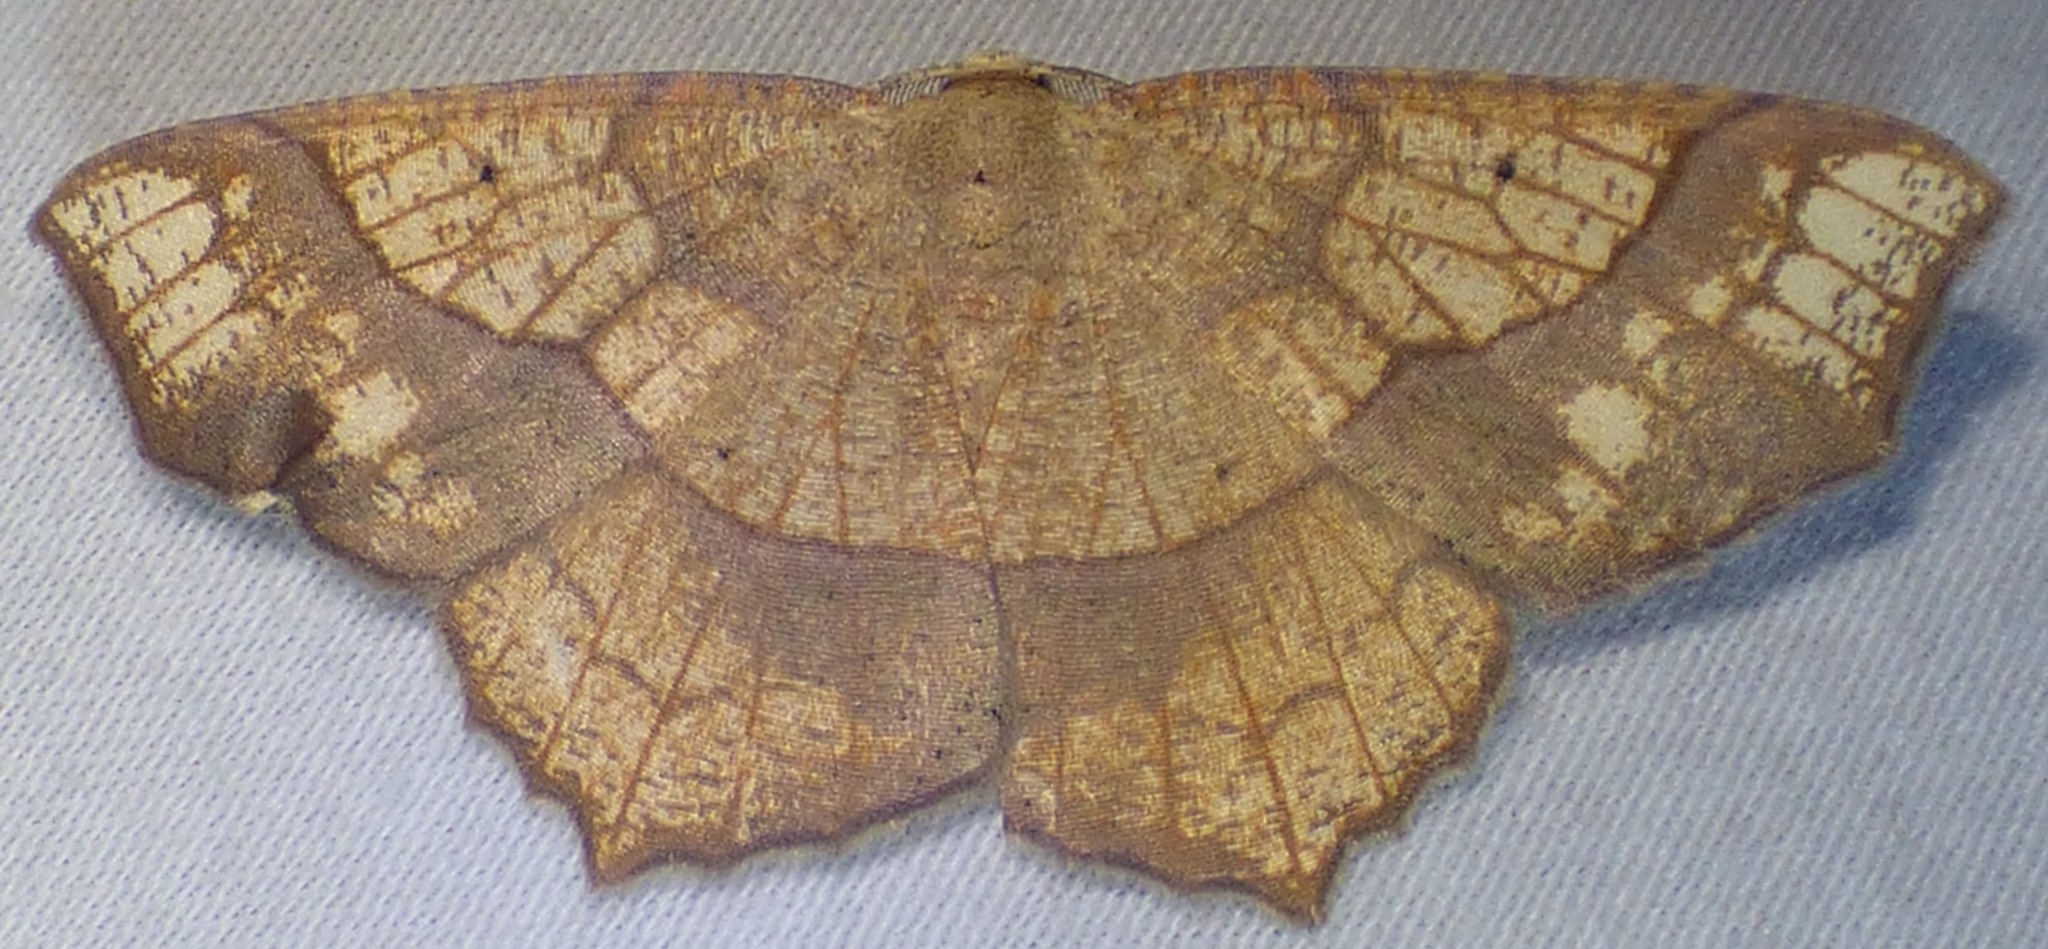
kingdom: Animalia
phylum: Arthropoda
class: Insecta
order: Lepidoptera
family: Geometridae
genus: Besma
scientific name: Besma quercivoraria
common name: Oak besma
